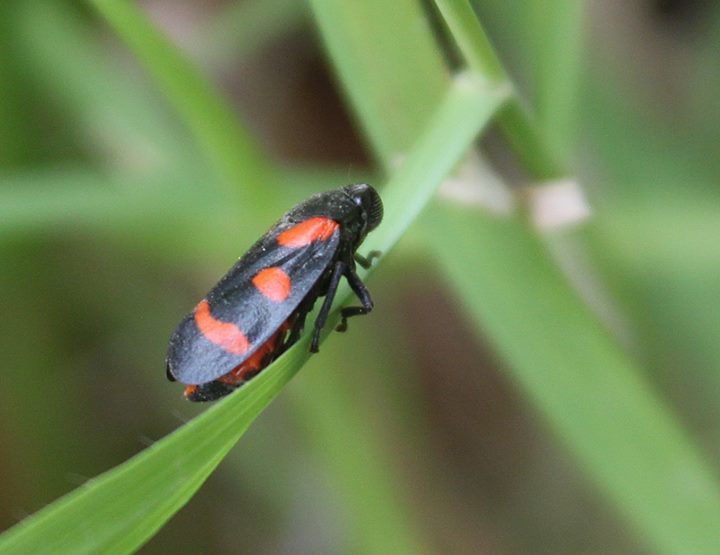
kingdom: Animalia
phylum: Arthropoda
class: Insecta
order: Hemiptera
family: Cercopidae
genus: Cercopis
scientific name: Cercopis sanguinolenta
